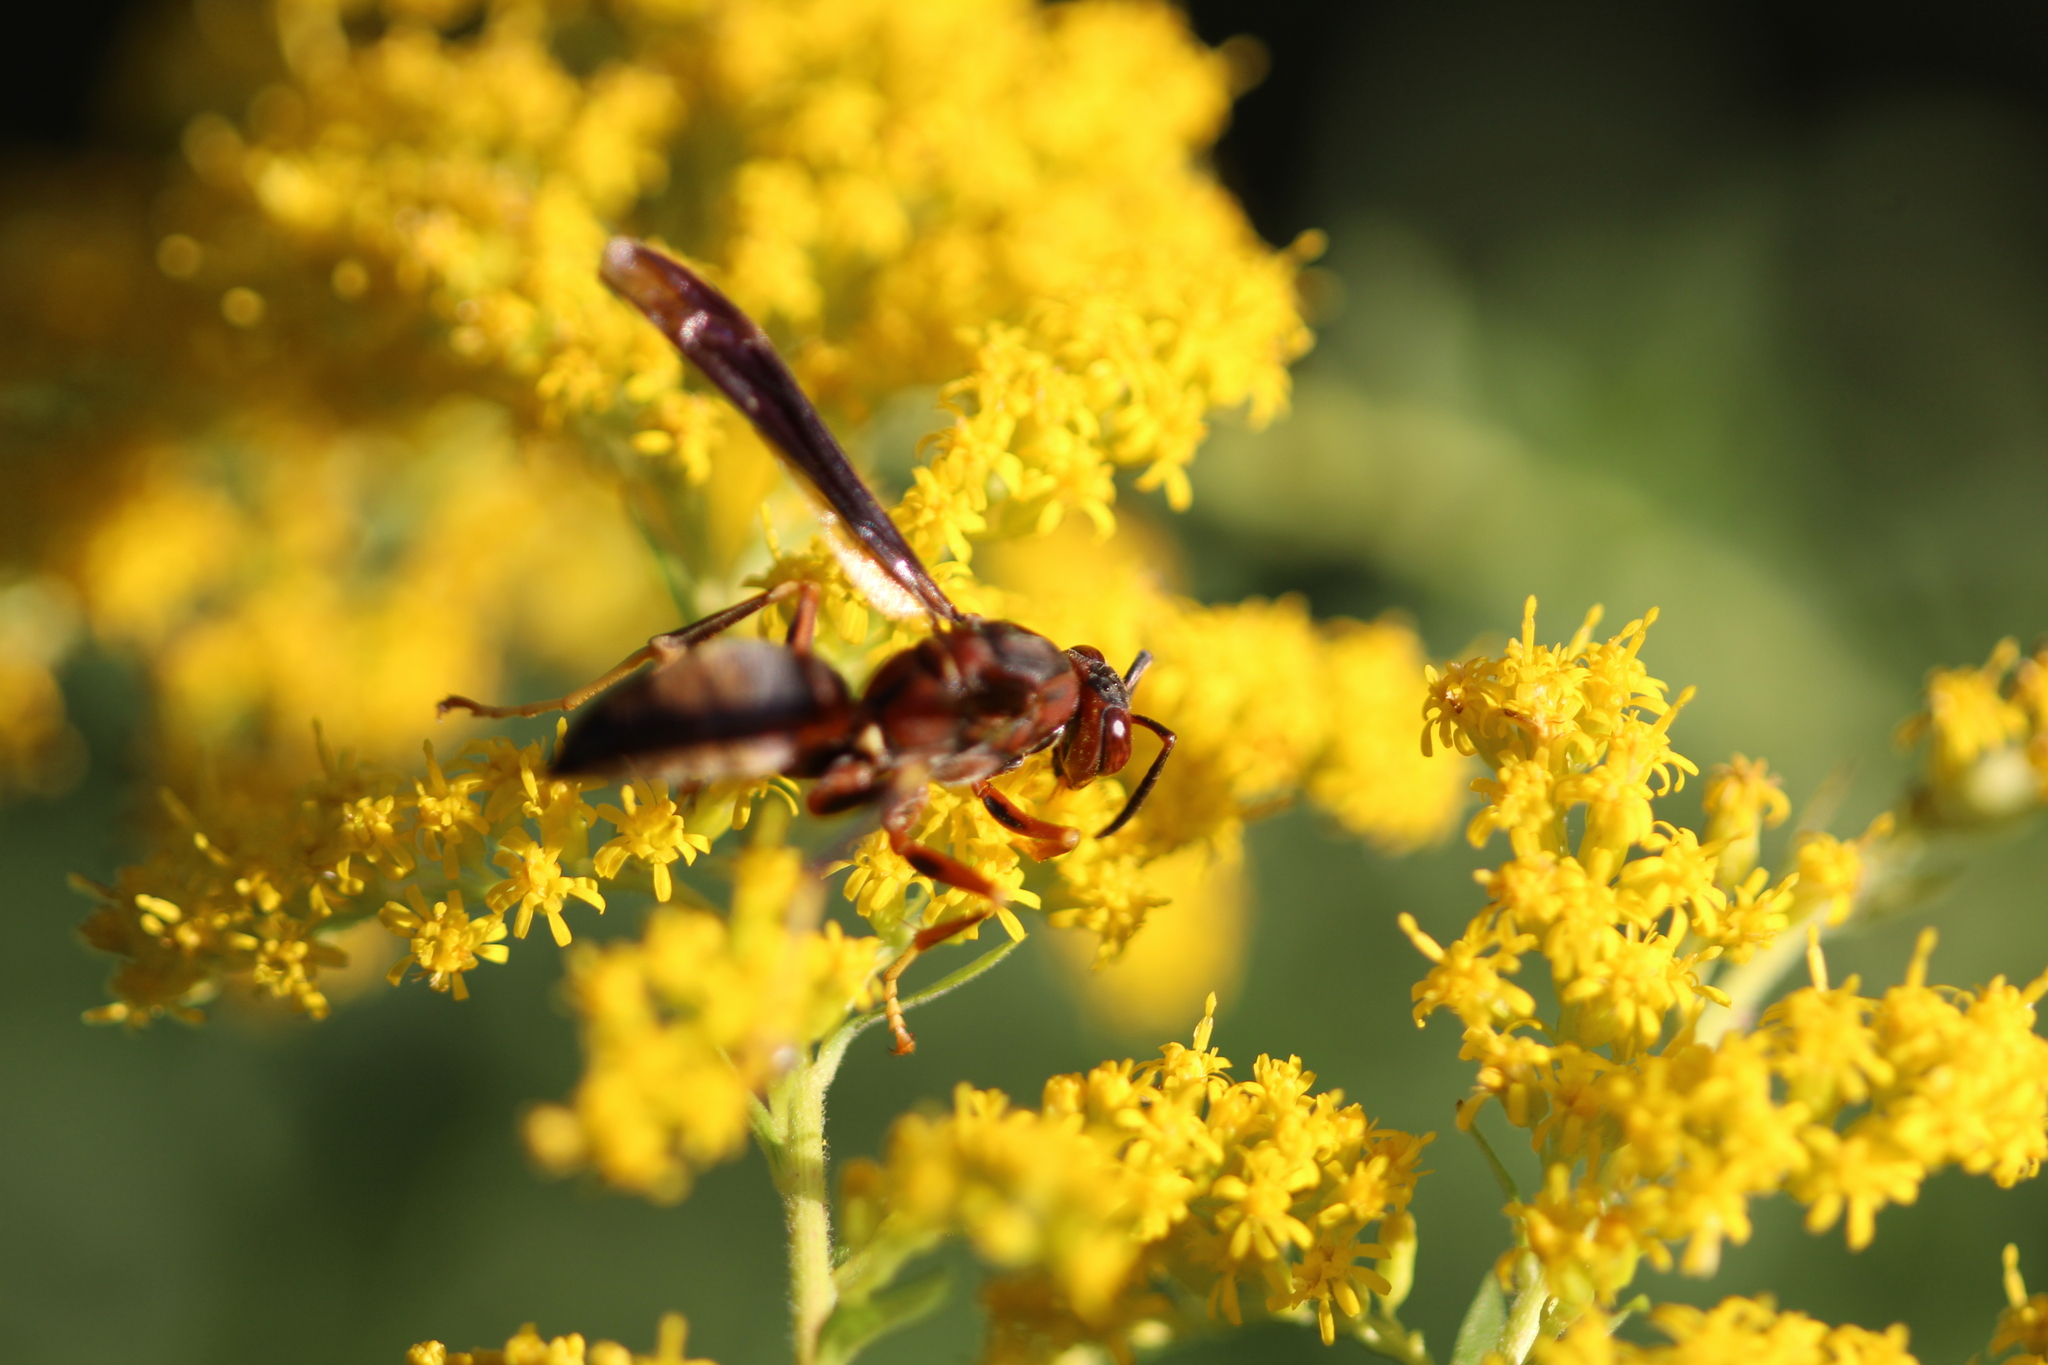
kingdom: Animalia
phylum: Arthropoda
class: Insecta
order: Hymenoptera
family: Eumenidae
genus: Polistes
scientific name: Polistes metricus
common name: Metric paper wasp
